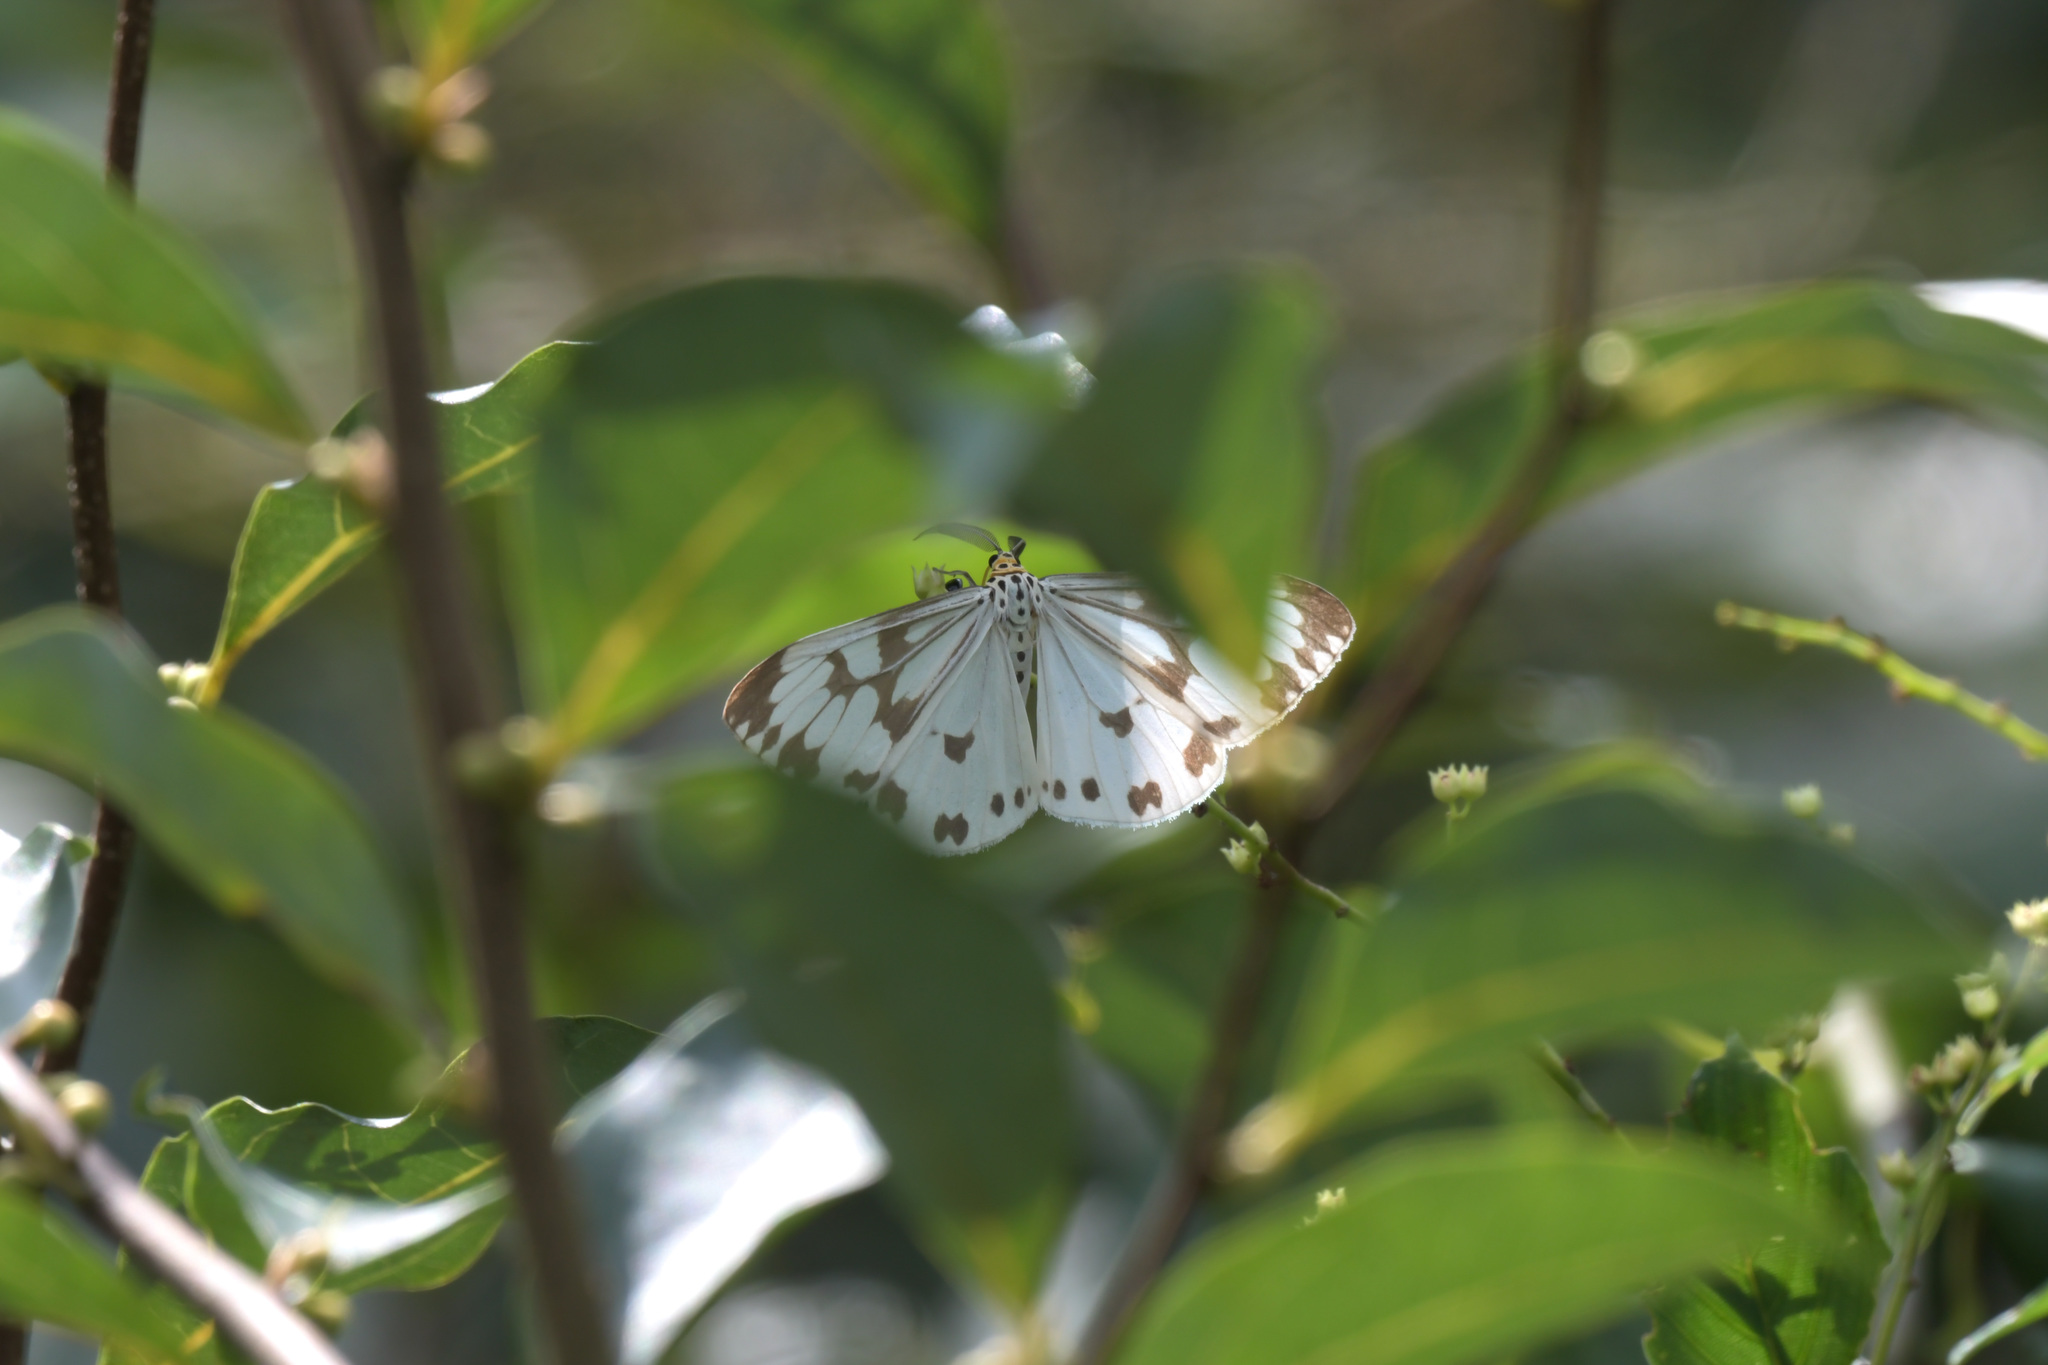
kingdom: Animalia
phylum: Arthropoda
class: Insecta
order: Lepidoptera
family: Erebidae
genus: Nyctemera
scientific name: Nyctemera adversata
